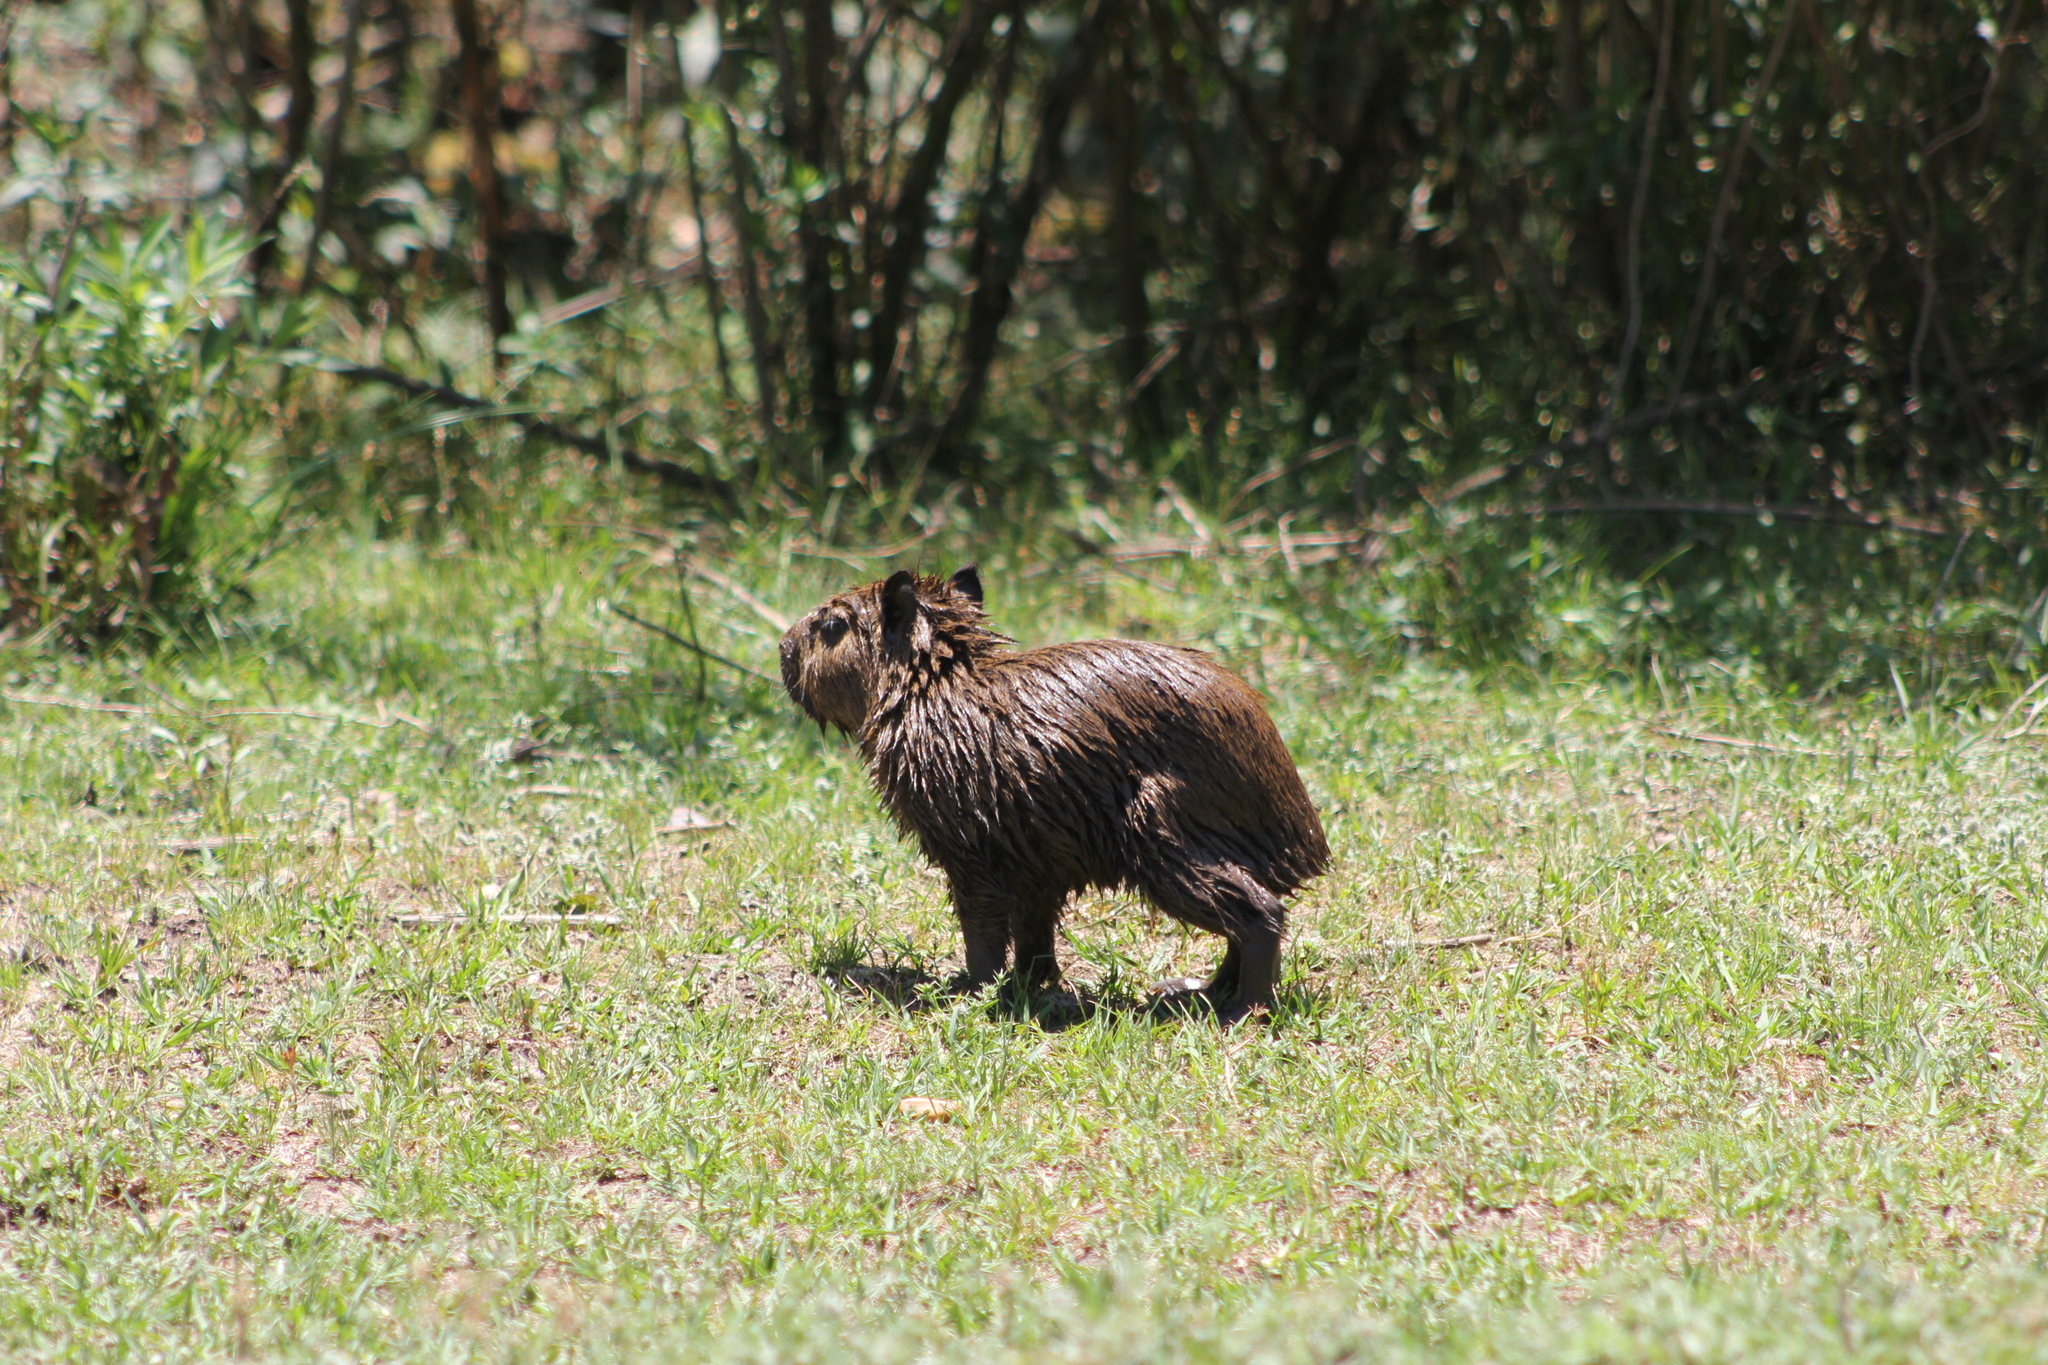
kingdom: Animalia
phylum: Chordata
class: Mammalia
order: Rodentia
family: Caviidae
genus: Hydrochoerus
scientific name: Hydrochoerus hydrochaeris
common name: Capybara
